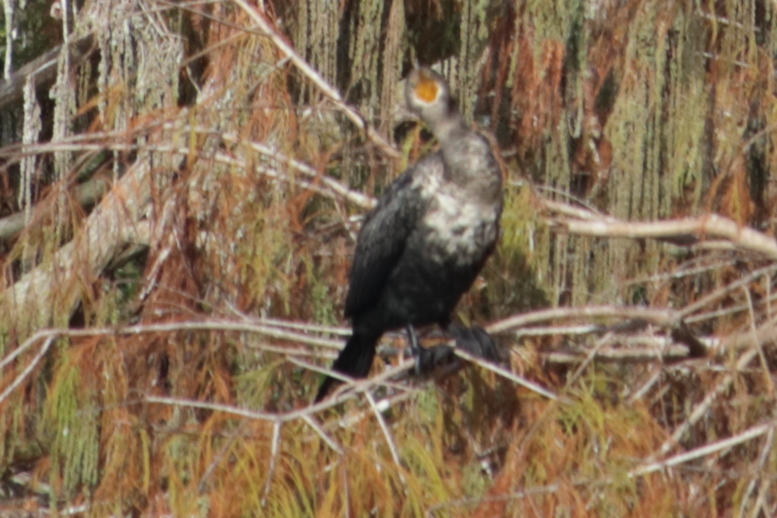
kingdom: Animalia
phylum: Chordata
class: Aves
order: Suliformes
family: Phalacrocoracidae
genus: Phalacrocorax
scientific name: Phalacrocorax auritus
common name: Double-crested cormorant
